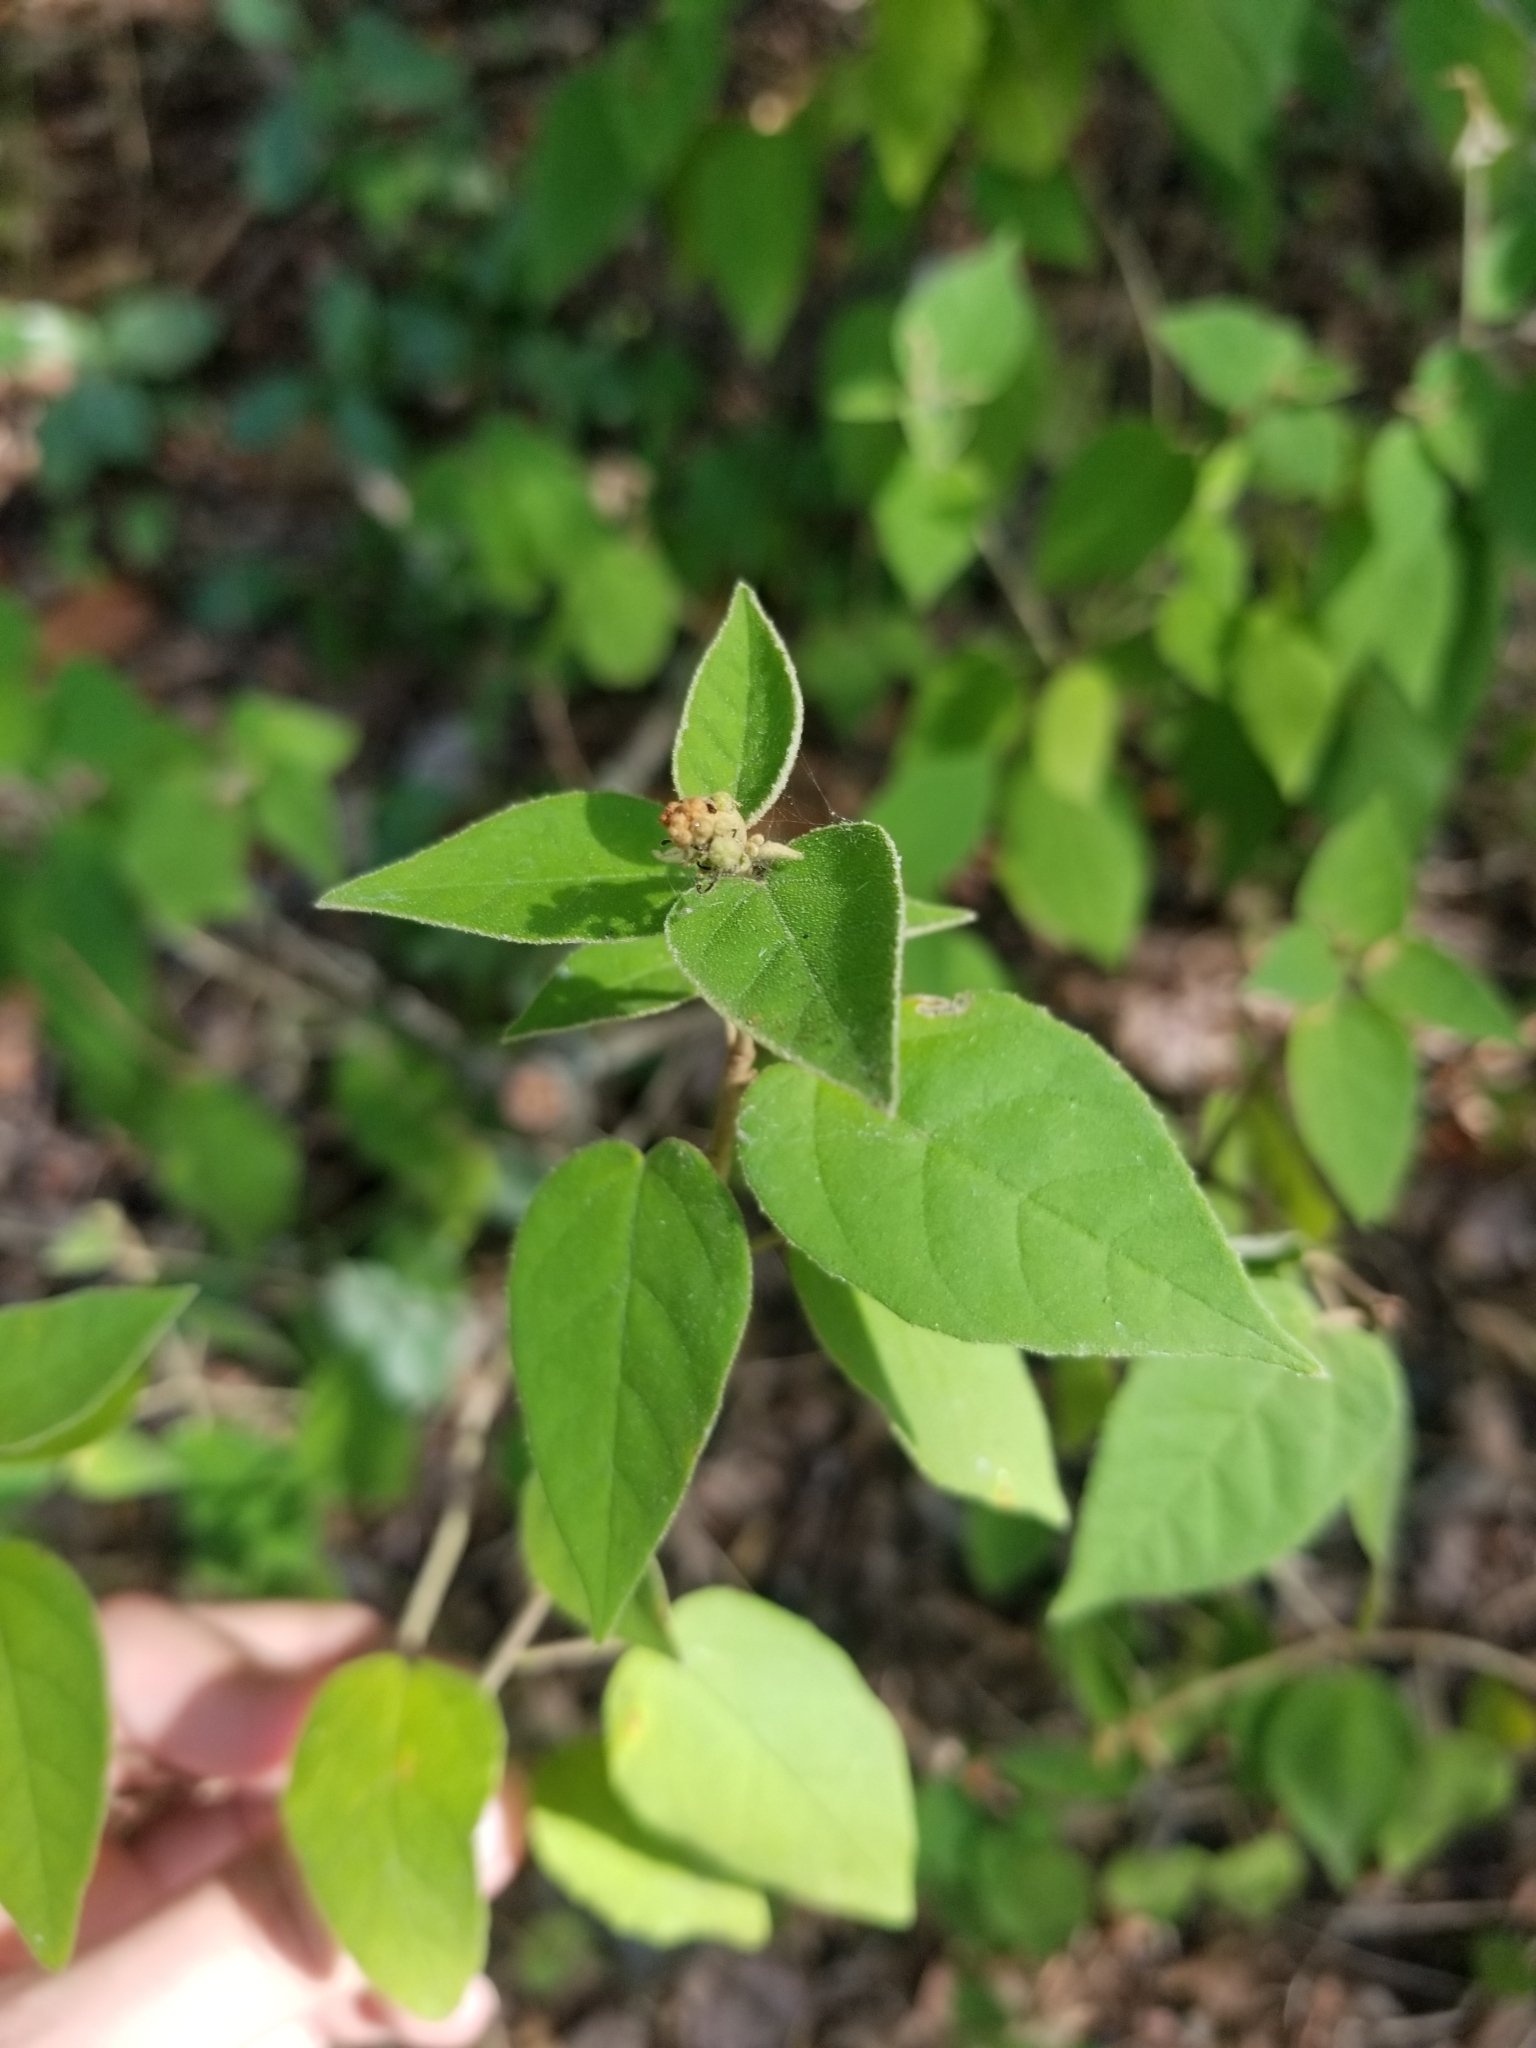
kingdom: Plantae
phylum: Tracheophyta
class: Magnoliopsida
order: Malpighiales
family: Euphorbiaceae
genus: Croton
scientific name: Croton fruticulosus
